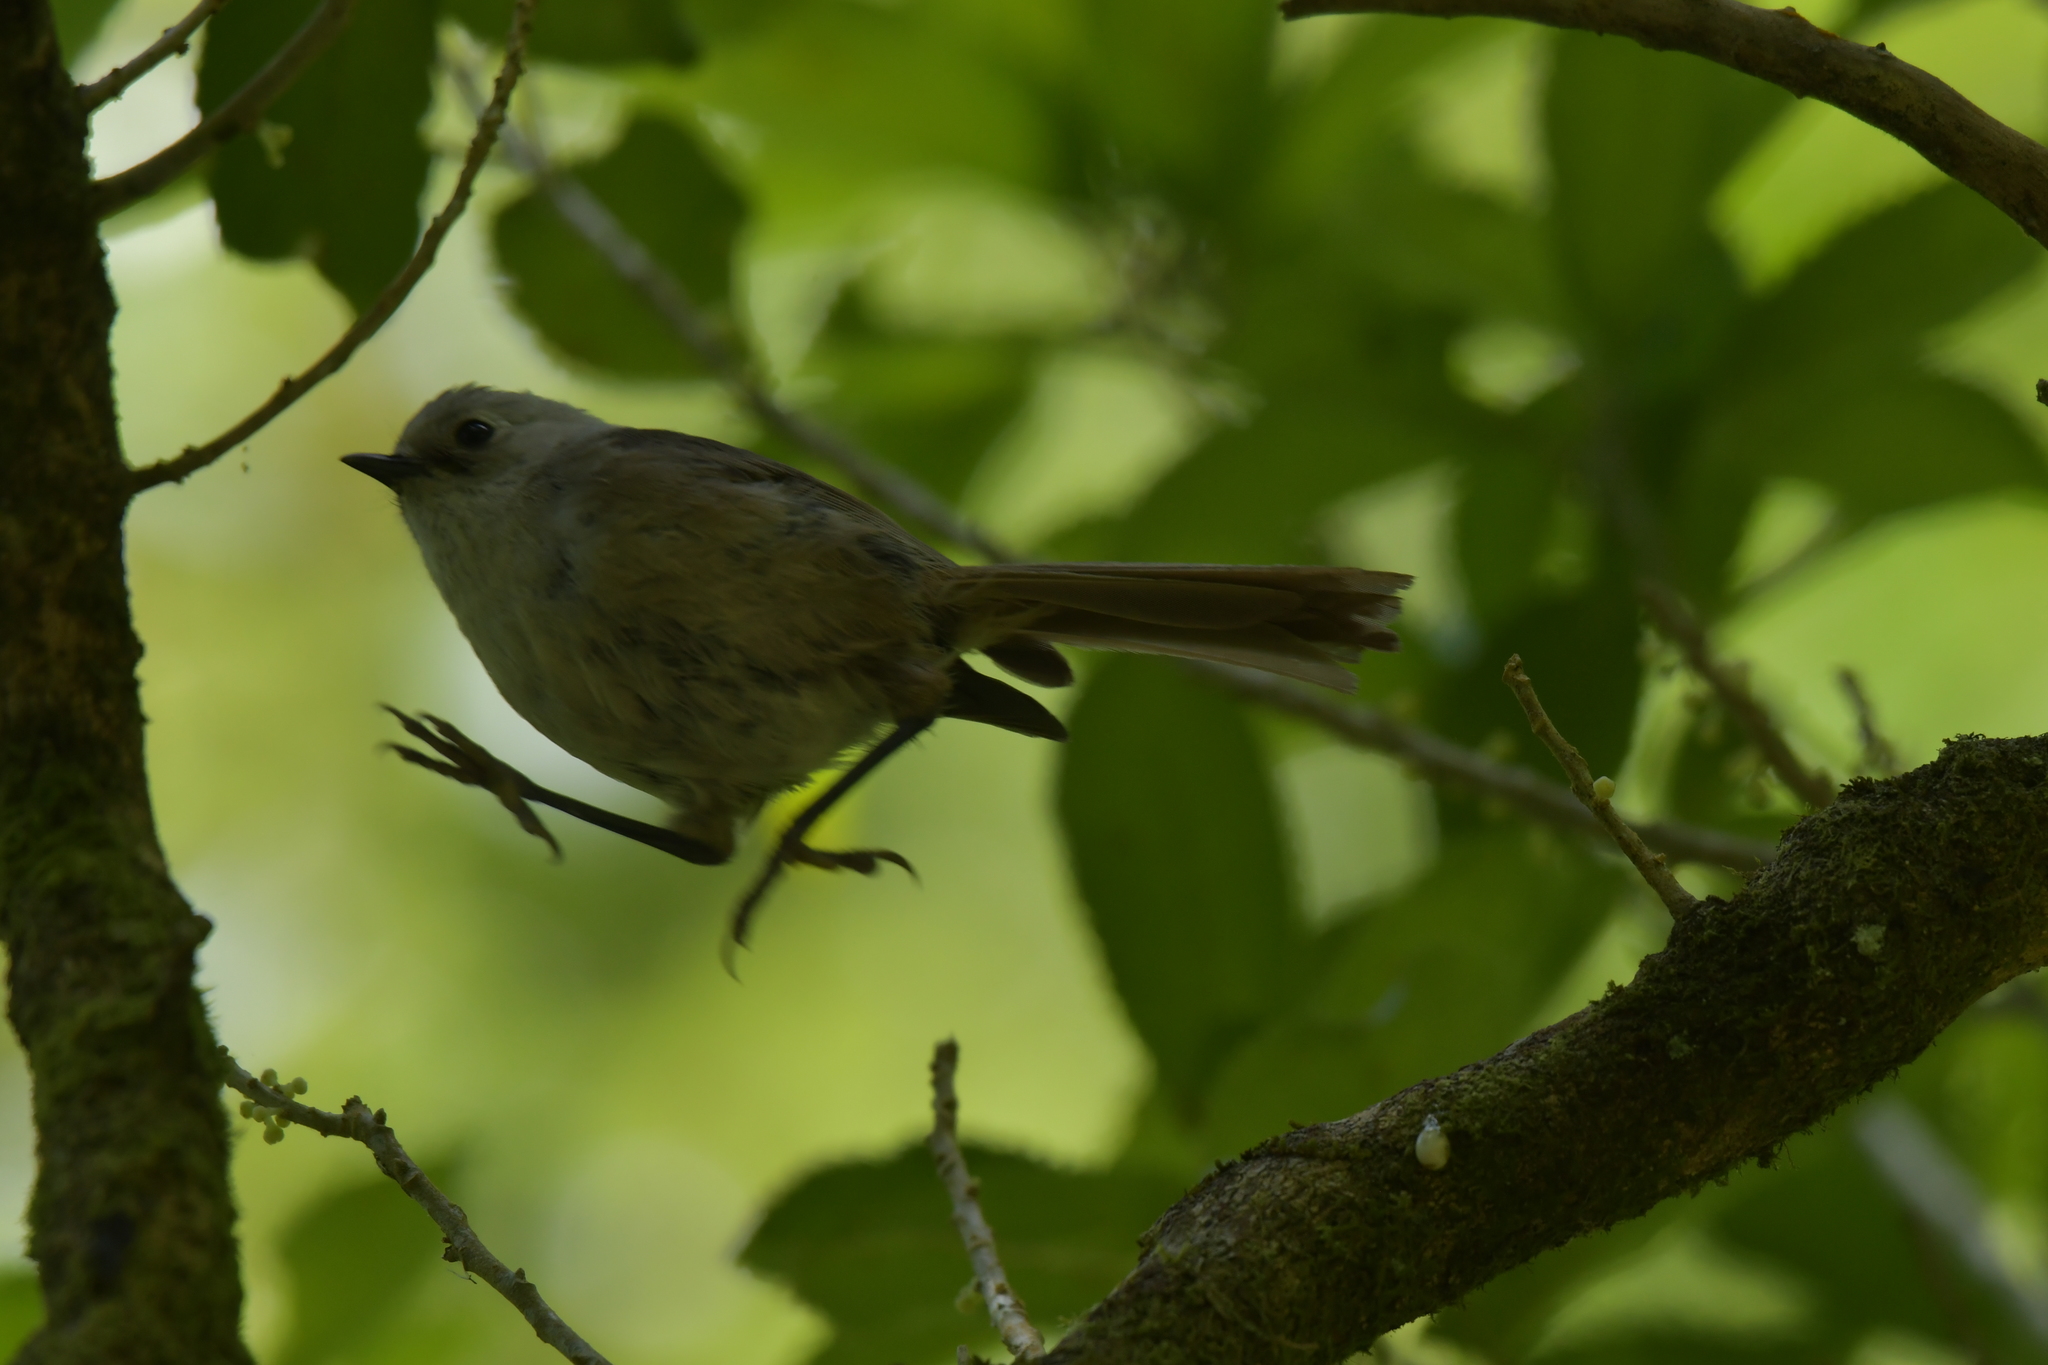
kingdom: Animalia
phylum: Chordata
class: Aves
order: Passeriformes
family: Acanthizidae
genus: Mohoua
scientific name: Mohoua albicilla
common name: Whitehead
